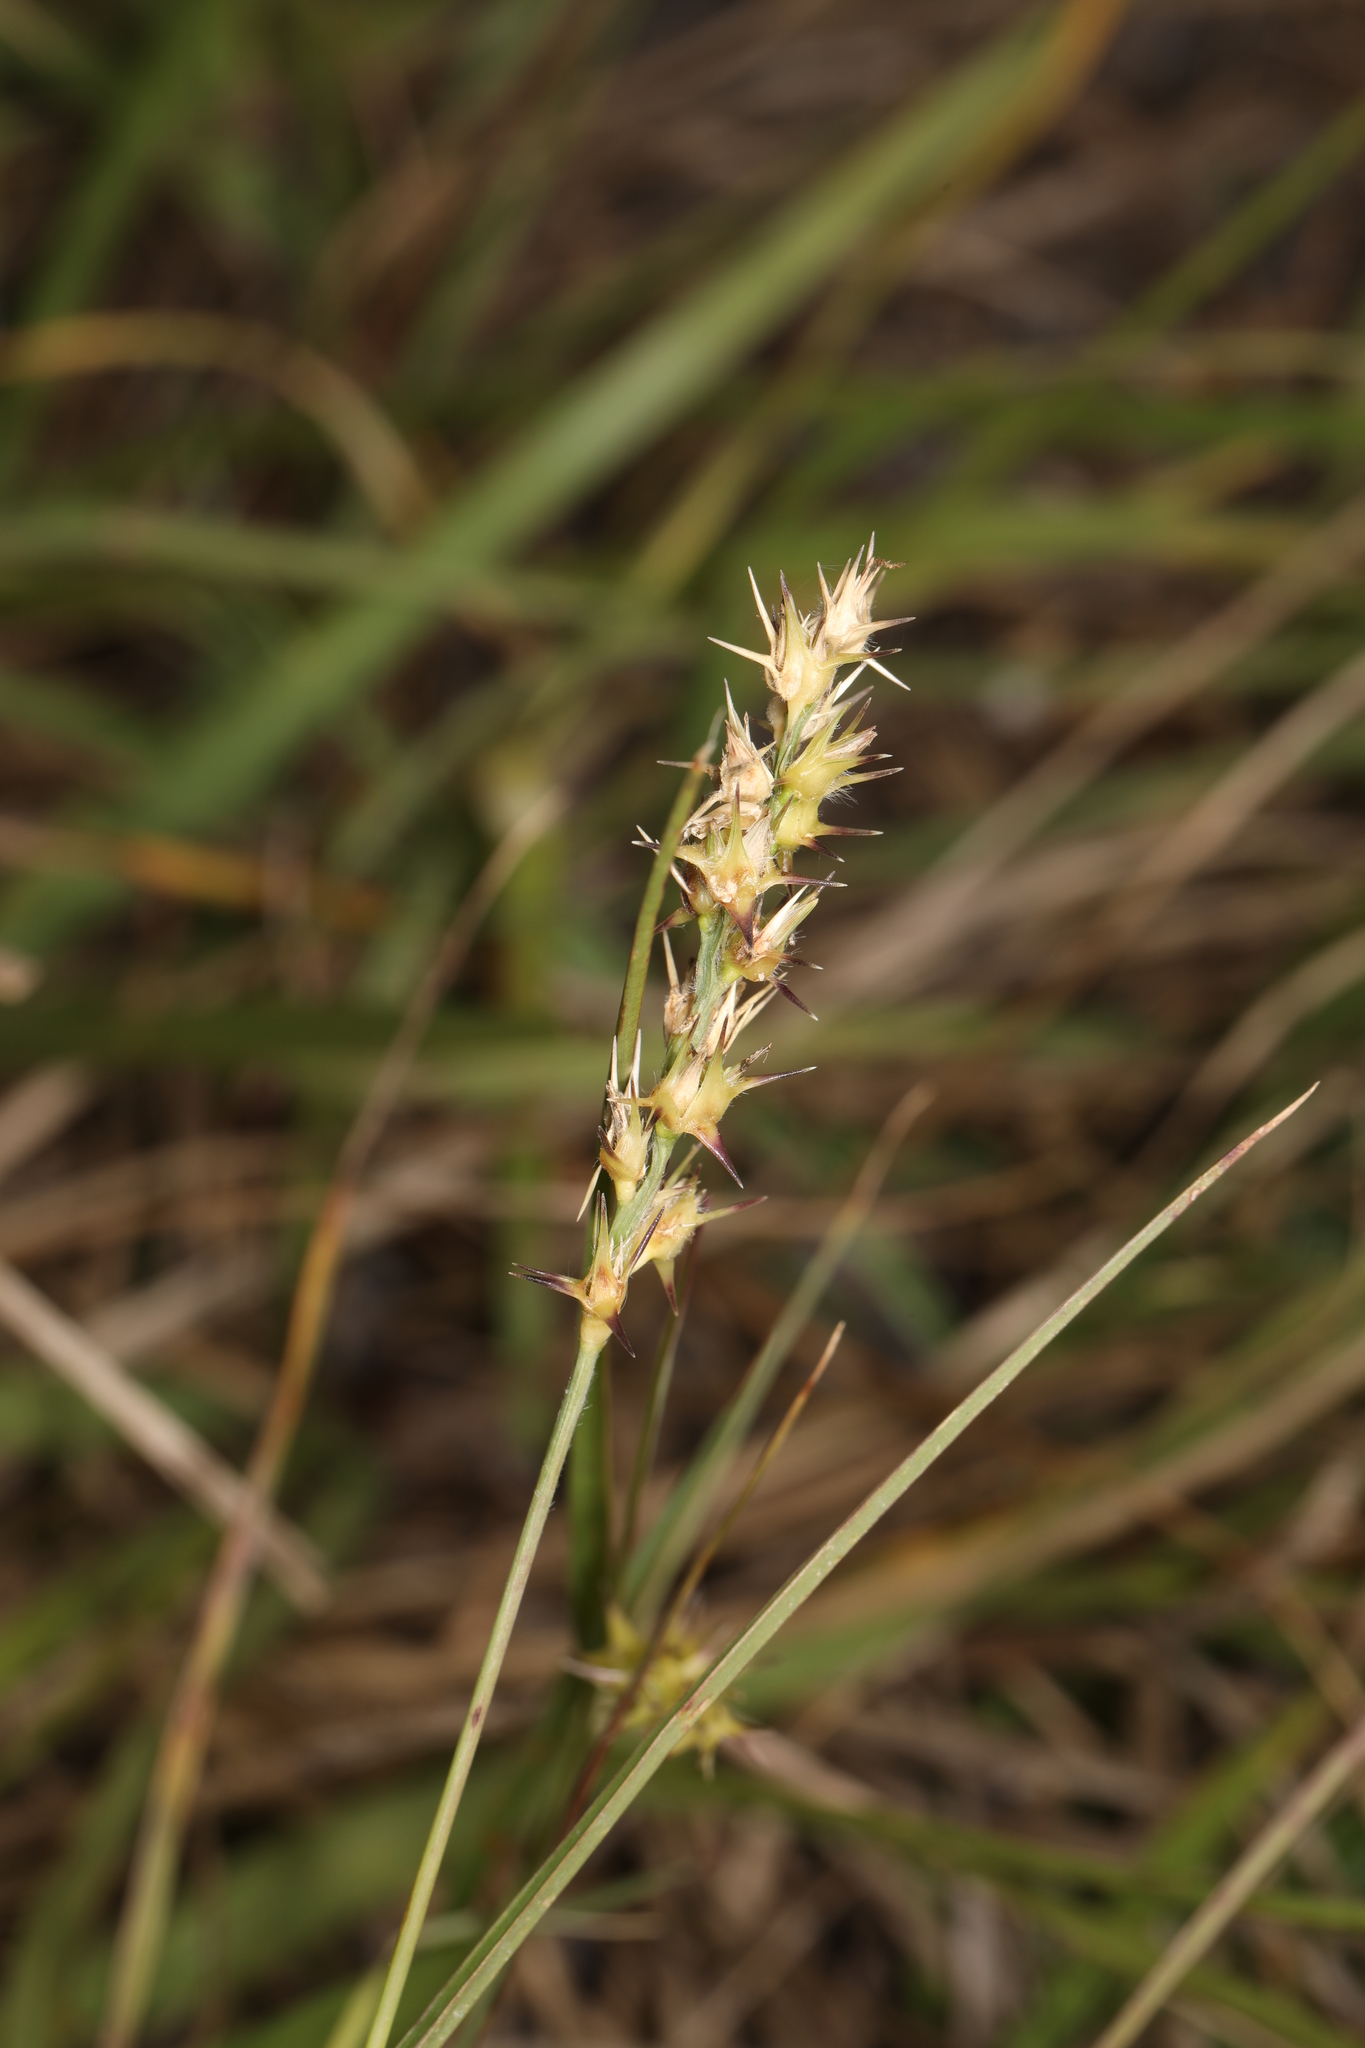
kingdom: Plantae
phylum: Tracheophyta
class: Liliopsida
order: Poales
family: Poaceae
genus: Cenchrus
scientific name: Cenchrus spinifex
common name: Coast sandbur
